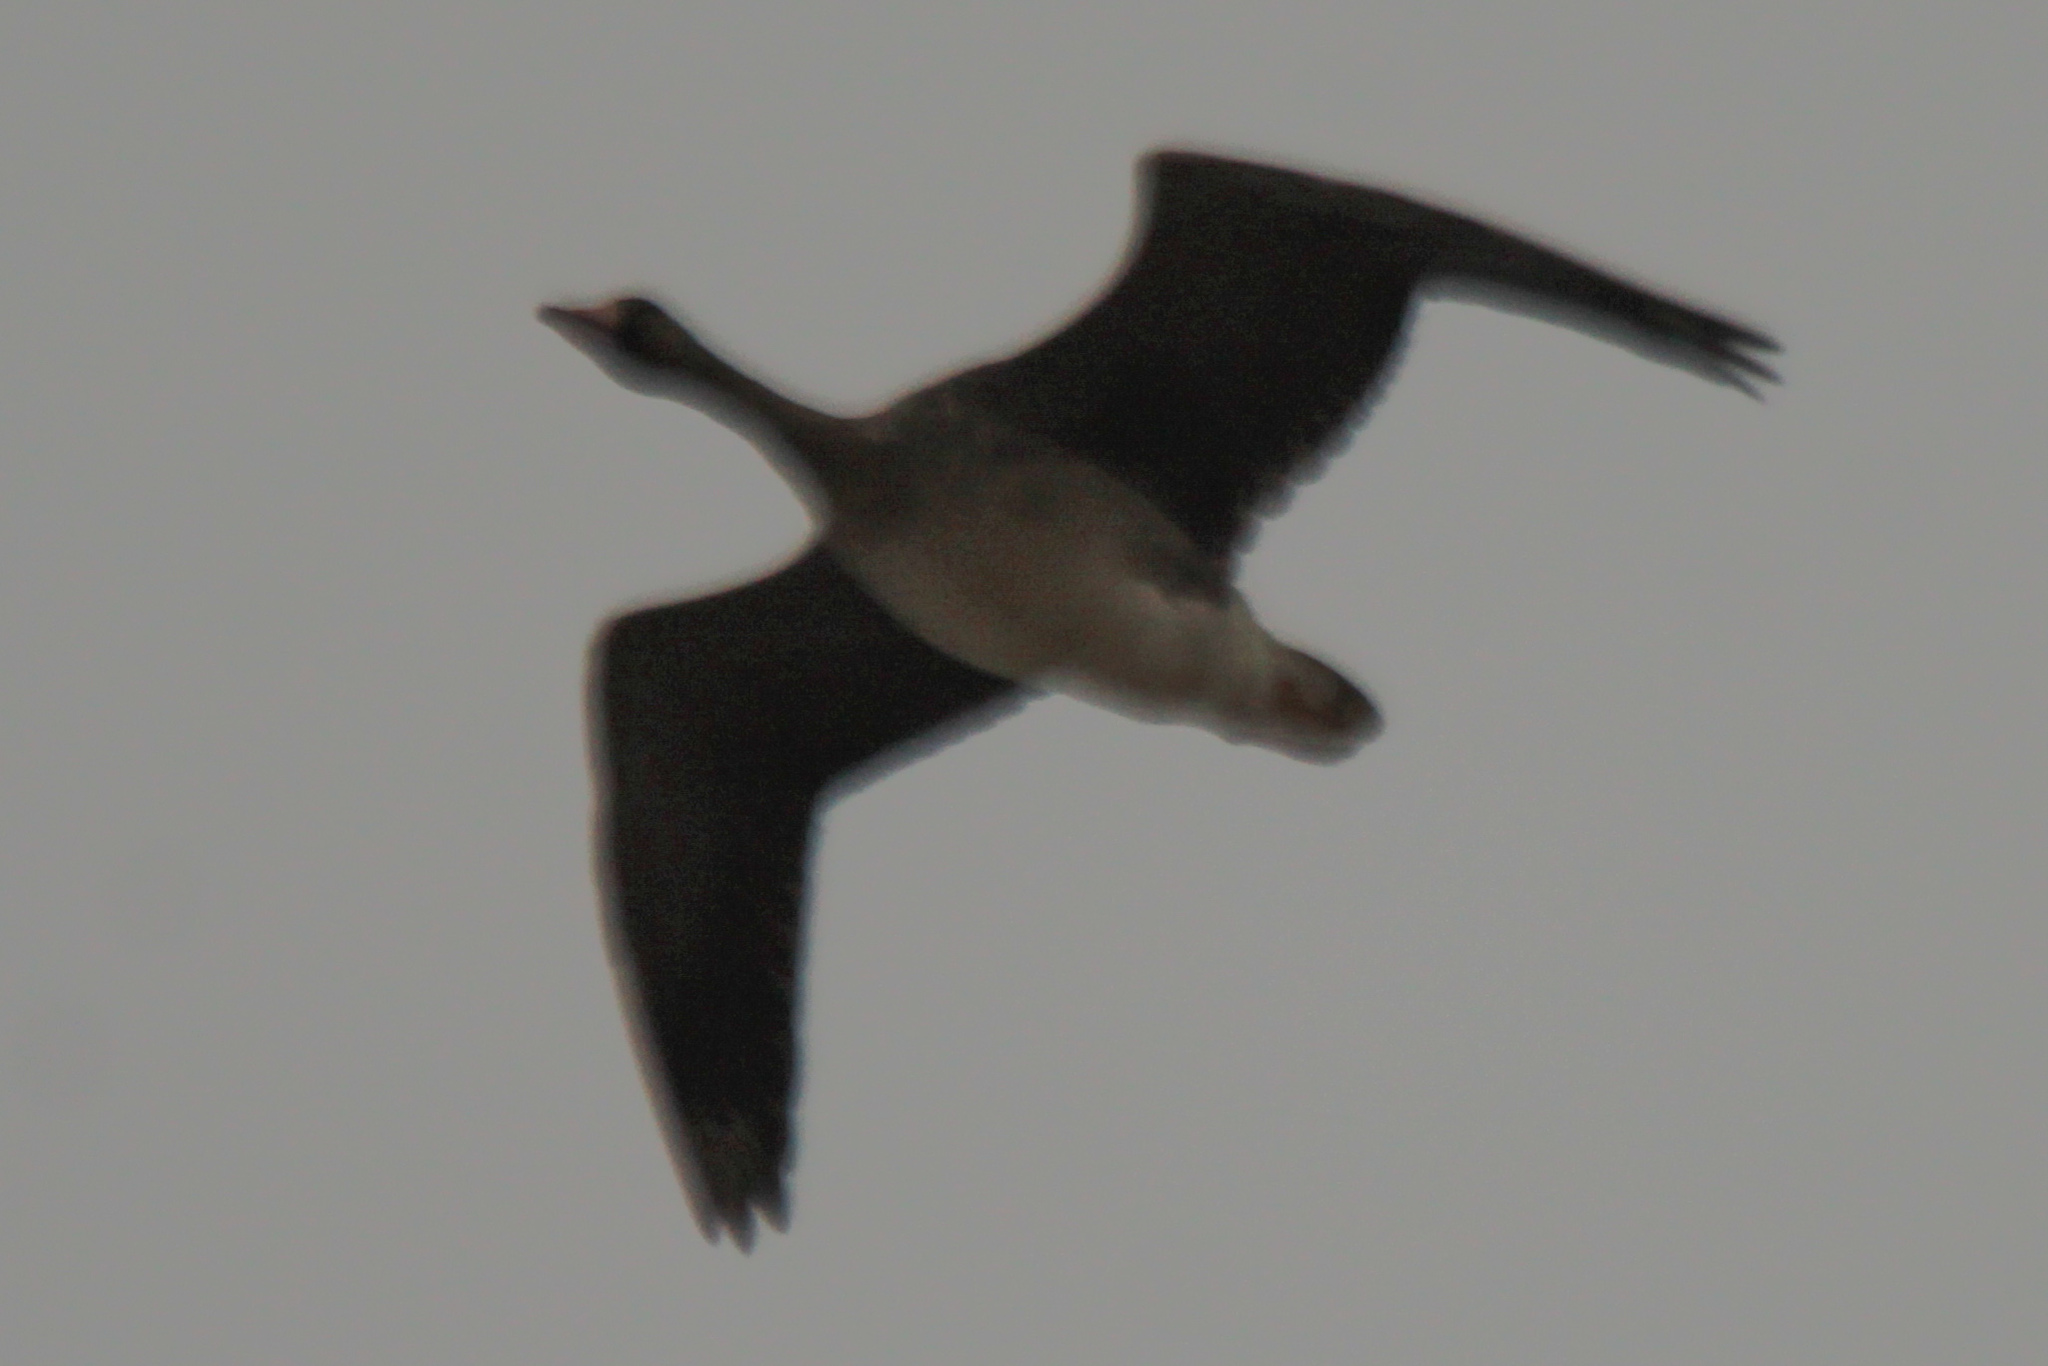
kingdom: Animalia
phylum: Chordata
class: Aves
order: Anseriformes
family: Anatidae
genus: Anser
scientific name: Anser albifrons
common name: Greater white-fronted goose
